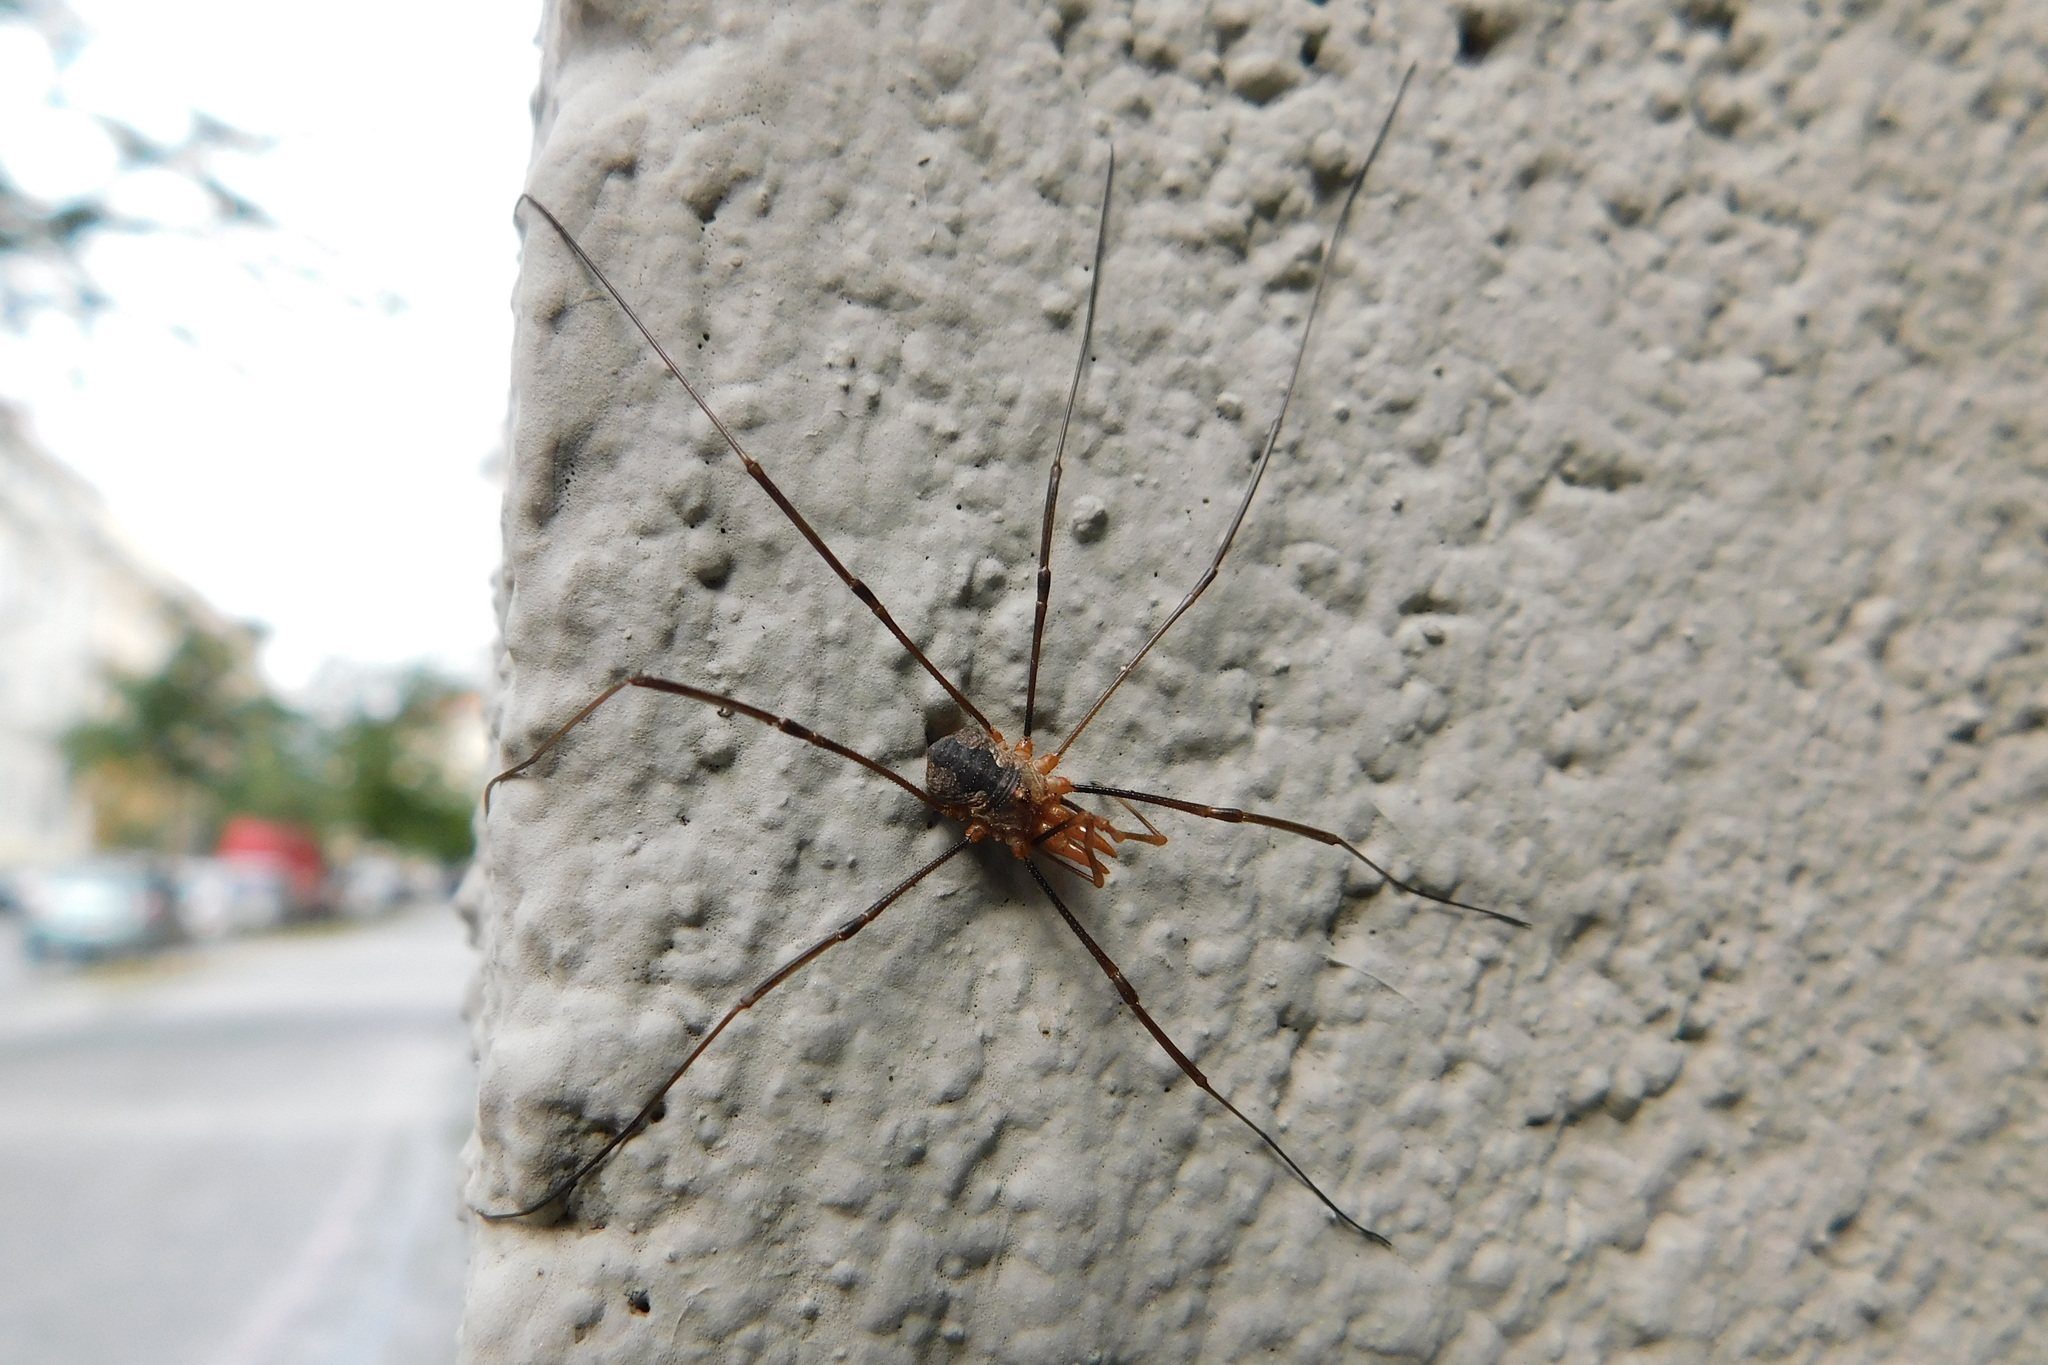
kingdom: Animalia
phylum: Arthropoda
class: Arachnida
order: Opiliones
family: Phalangiidae
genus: Phalangium
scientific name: Phalangium opilio
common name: Daddy longleg
